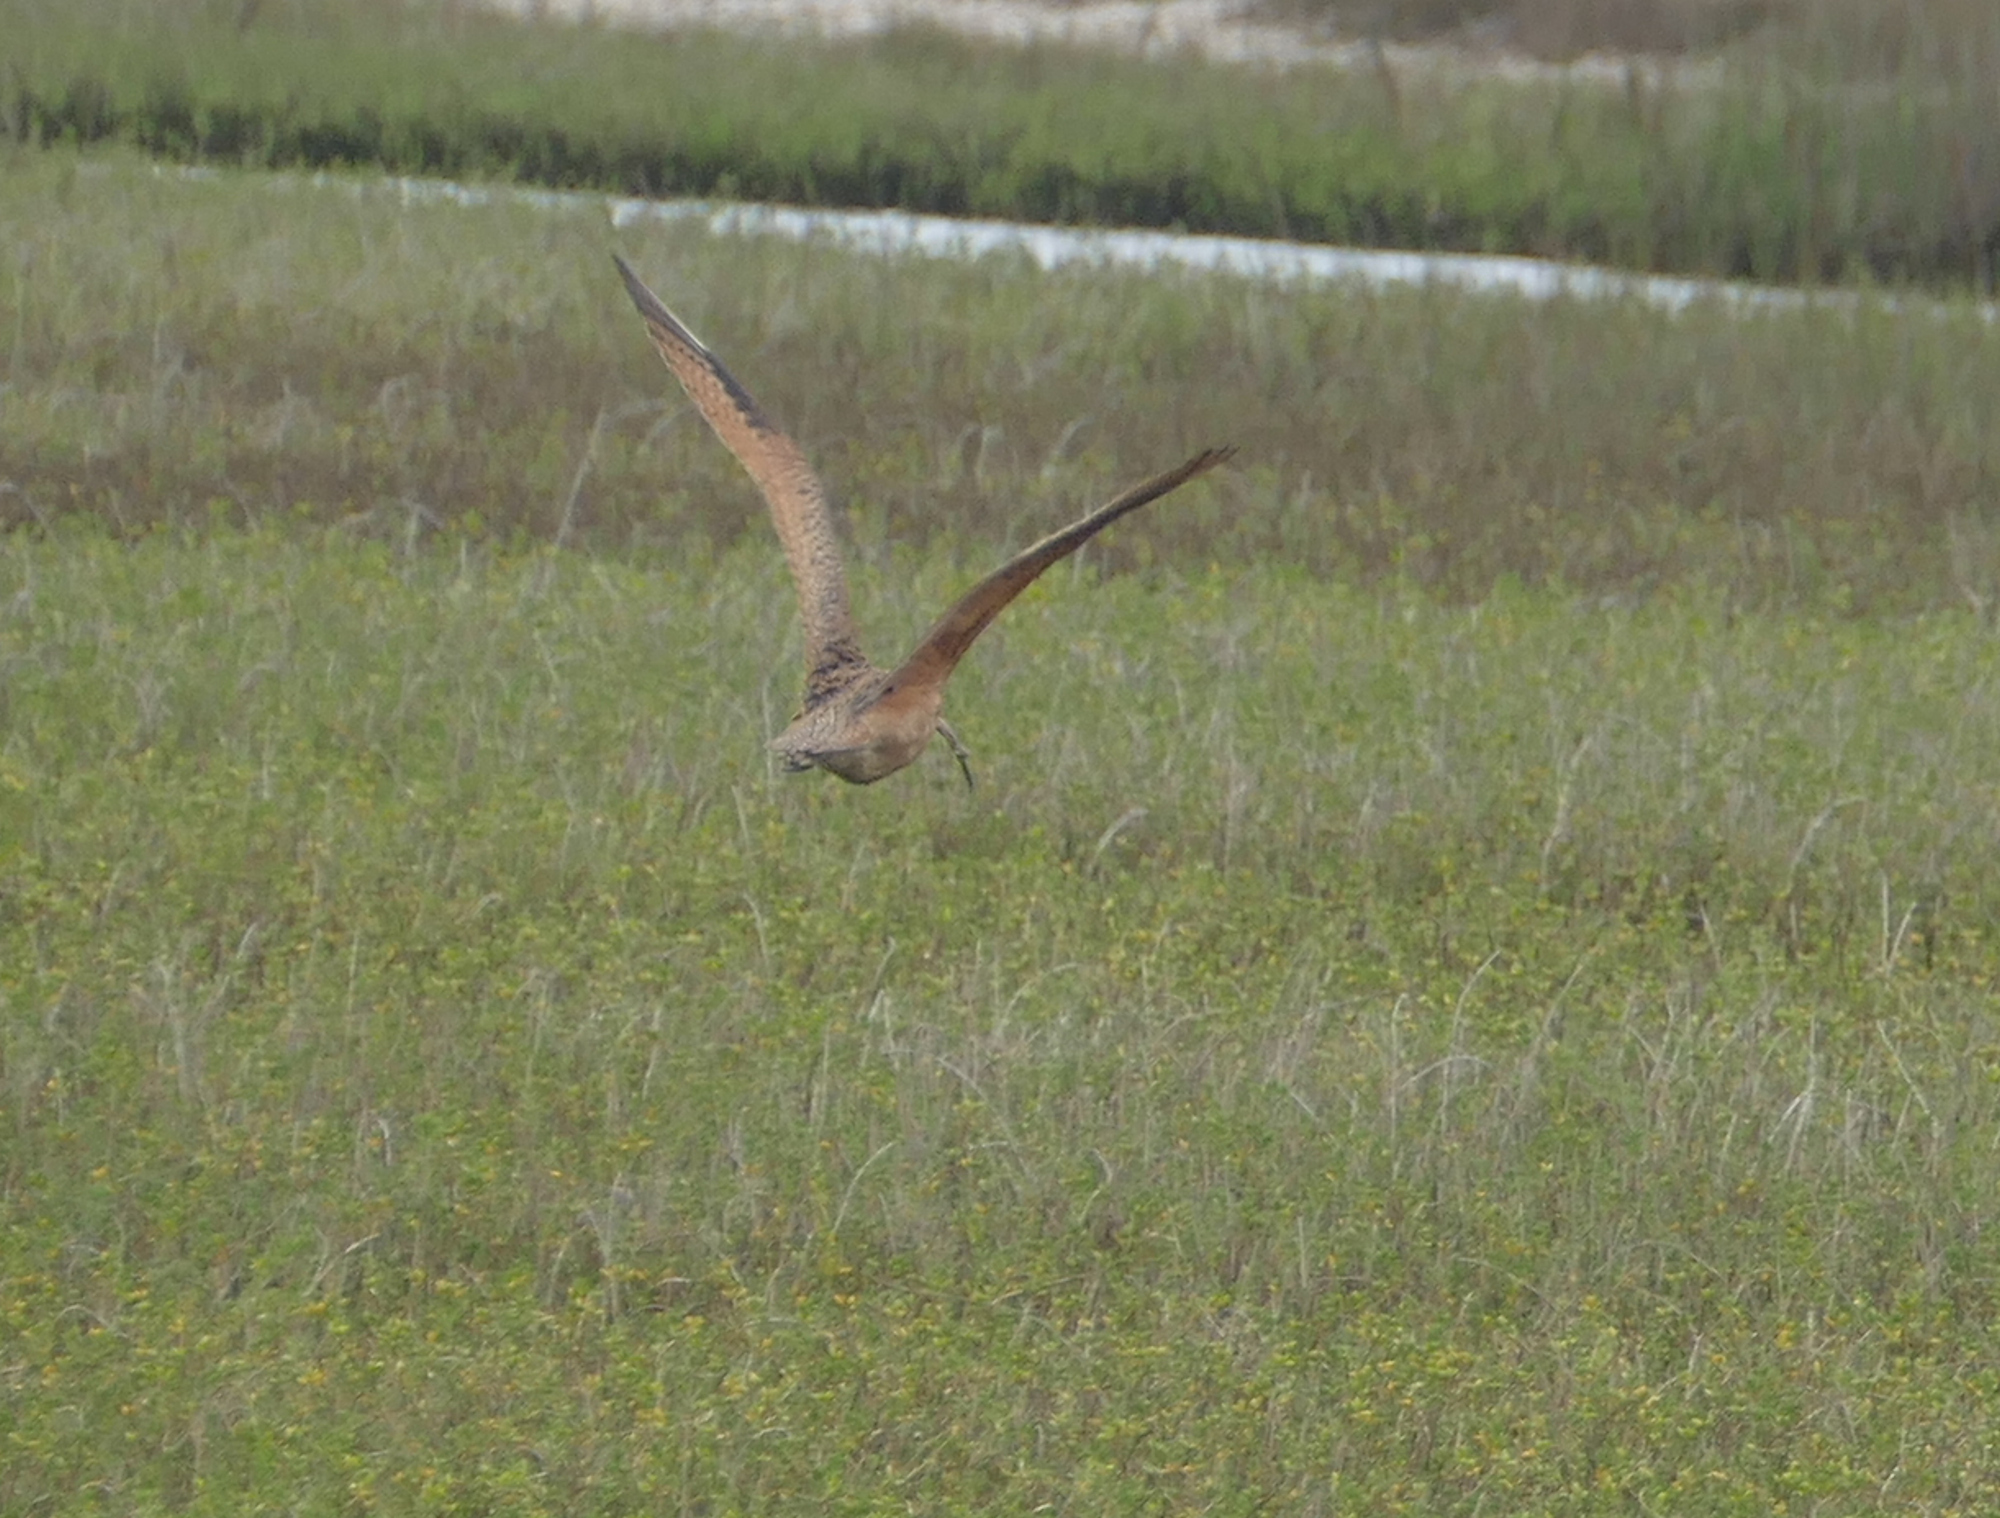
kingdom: Animalia
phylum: Chordata
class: Aves
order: Charadriiformes
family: Scolopacidae
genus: Numenius
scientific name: Numenius americanus
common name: Long-billed curlew
